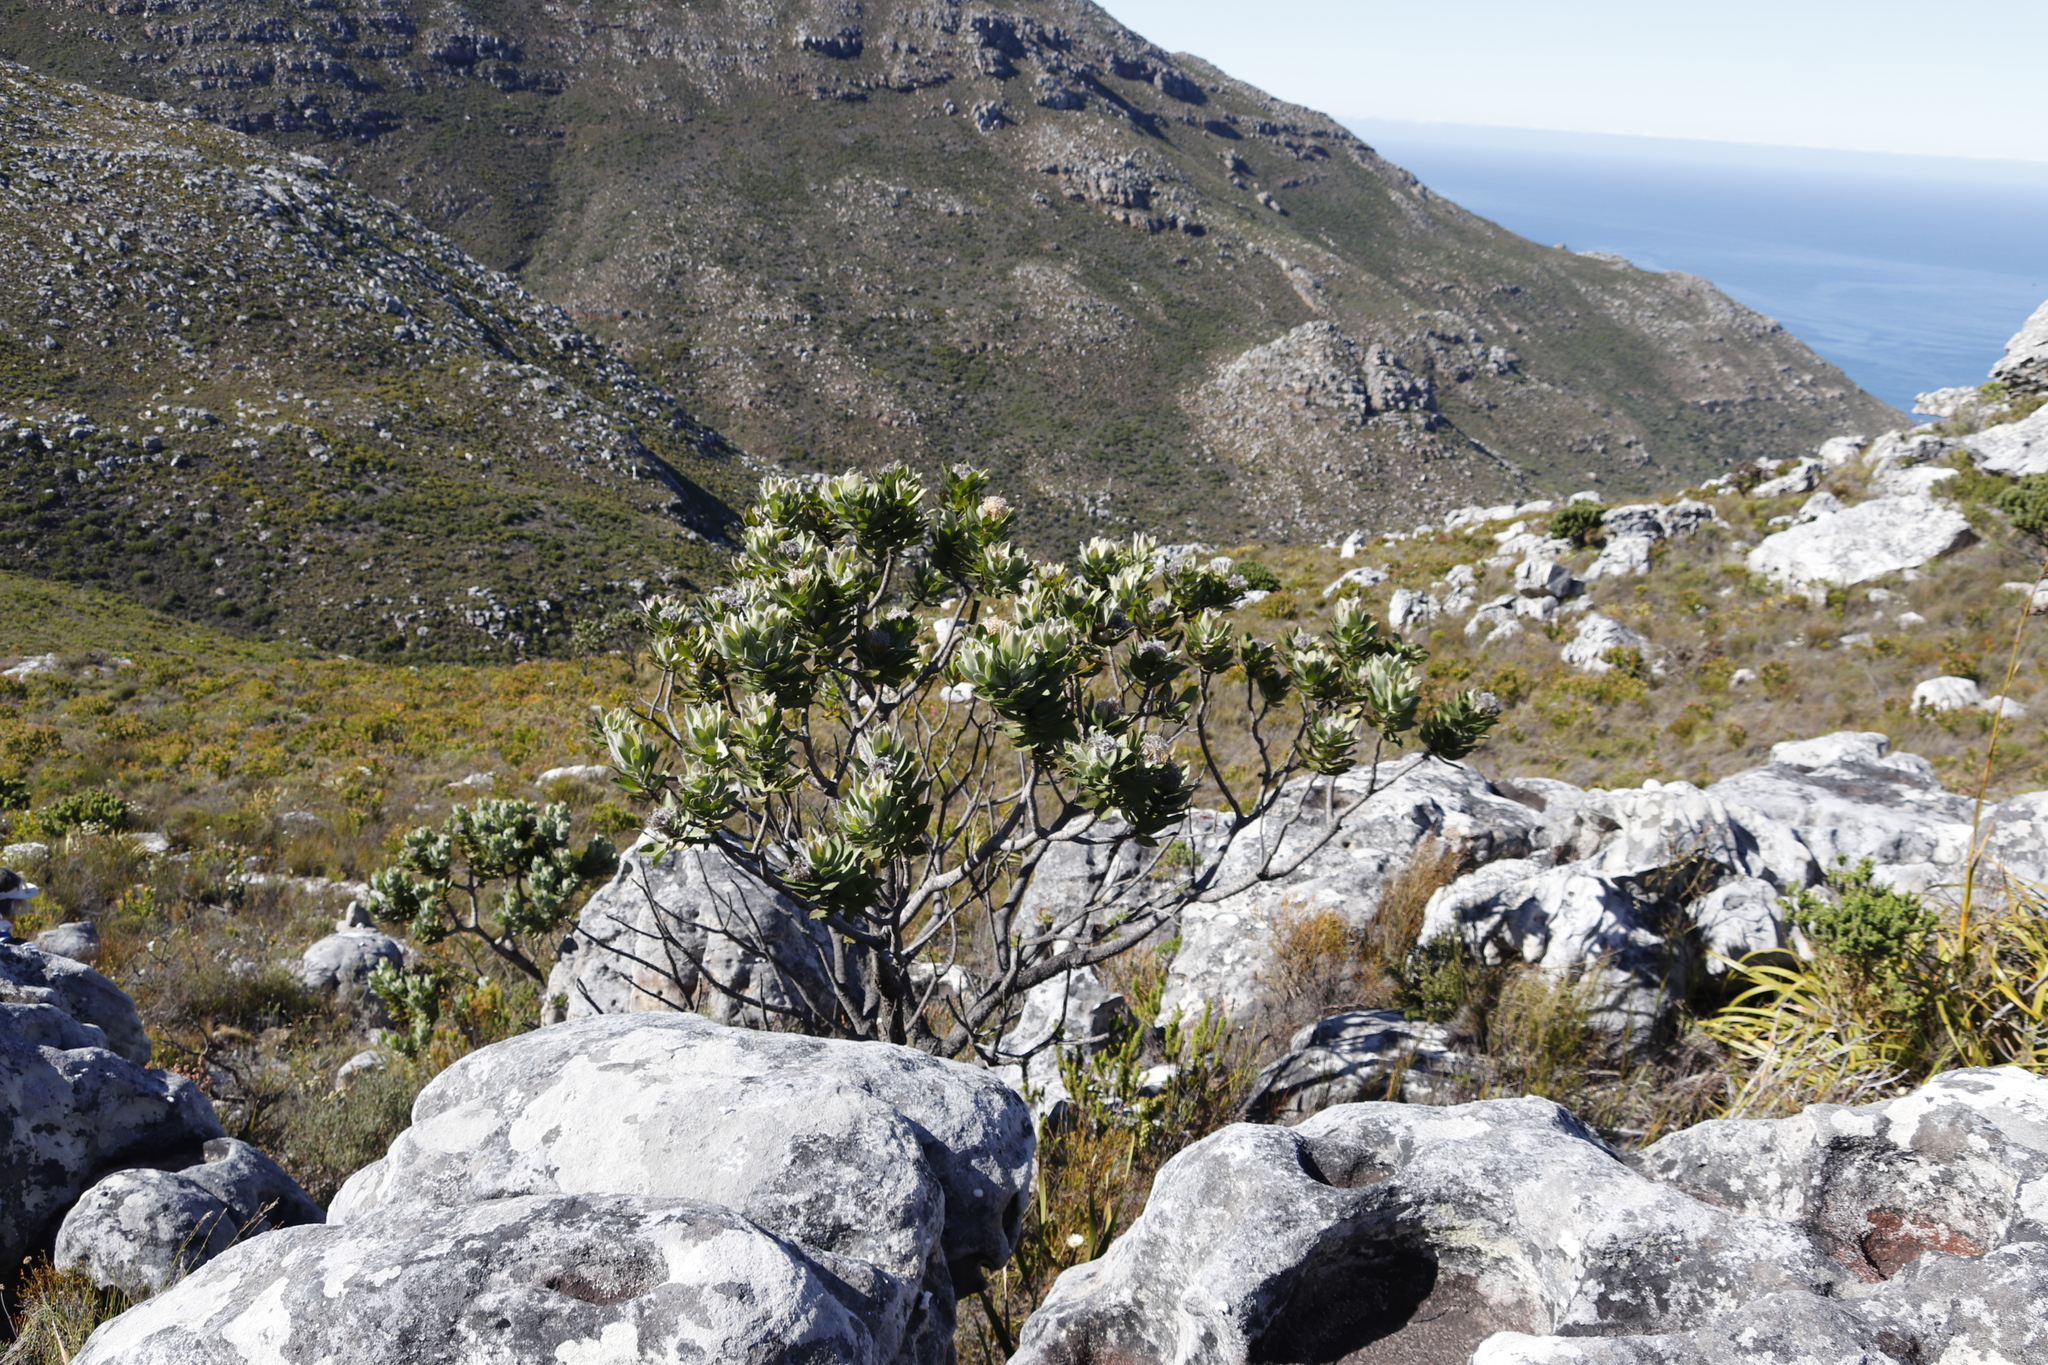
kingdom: Plantae
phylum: Tracheophyta
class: Magnoliopsida
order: Proteales
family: Proteaceae
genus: Leucospermum
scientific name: Leucospermum conocarpodendron
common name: Tree pincushion
